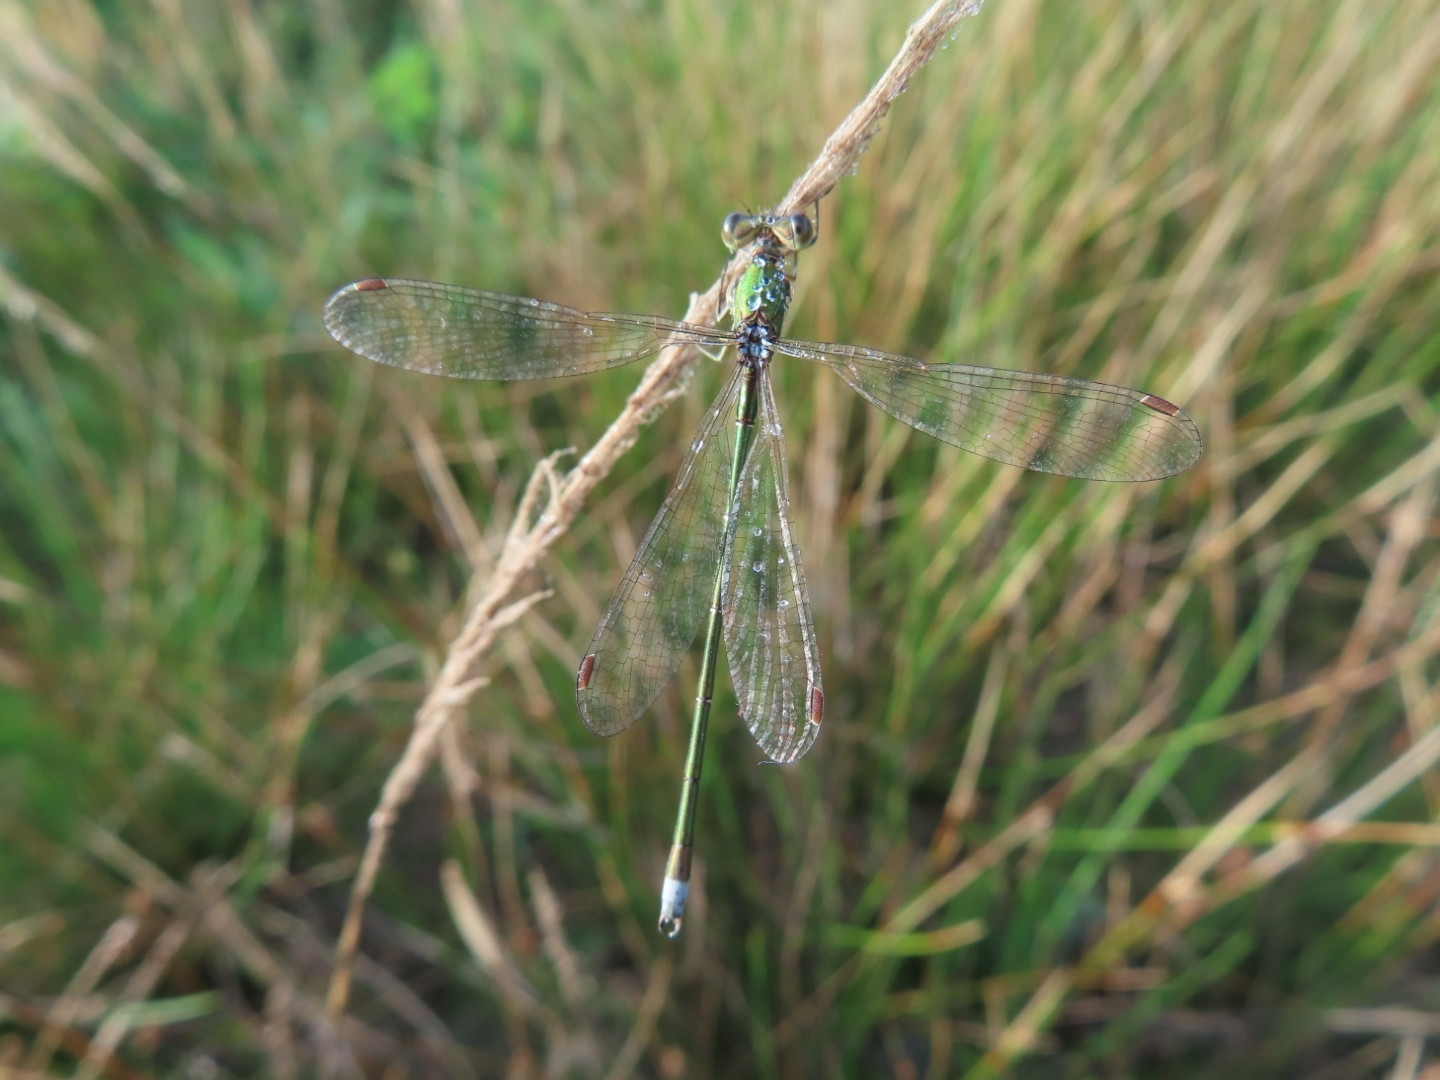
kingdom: Animalia
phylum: Arthropoda
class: Insecta
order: Odonata
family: Lestidae
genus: Lestes
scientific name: Lestes virens
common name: Small emerald spreadwing
